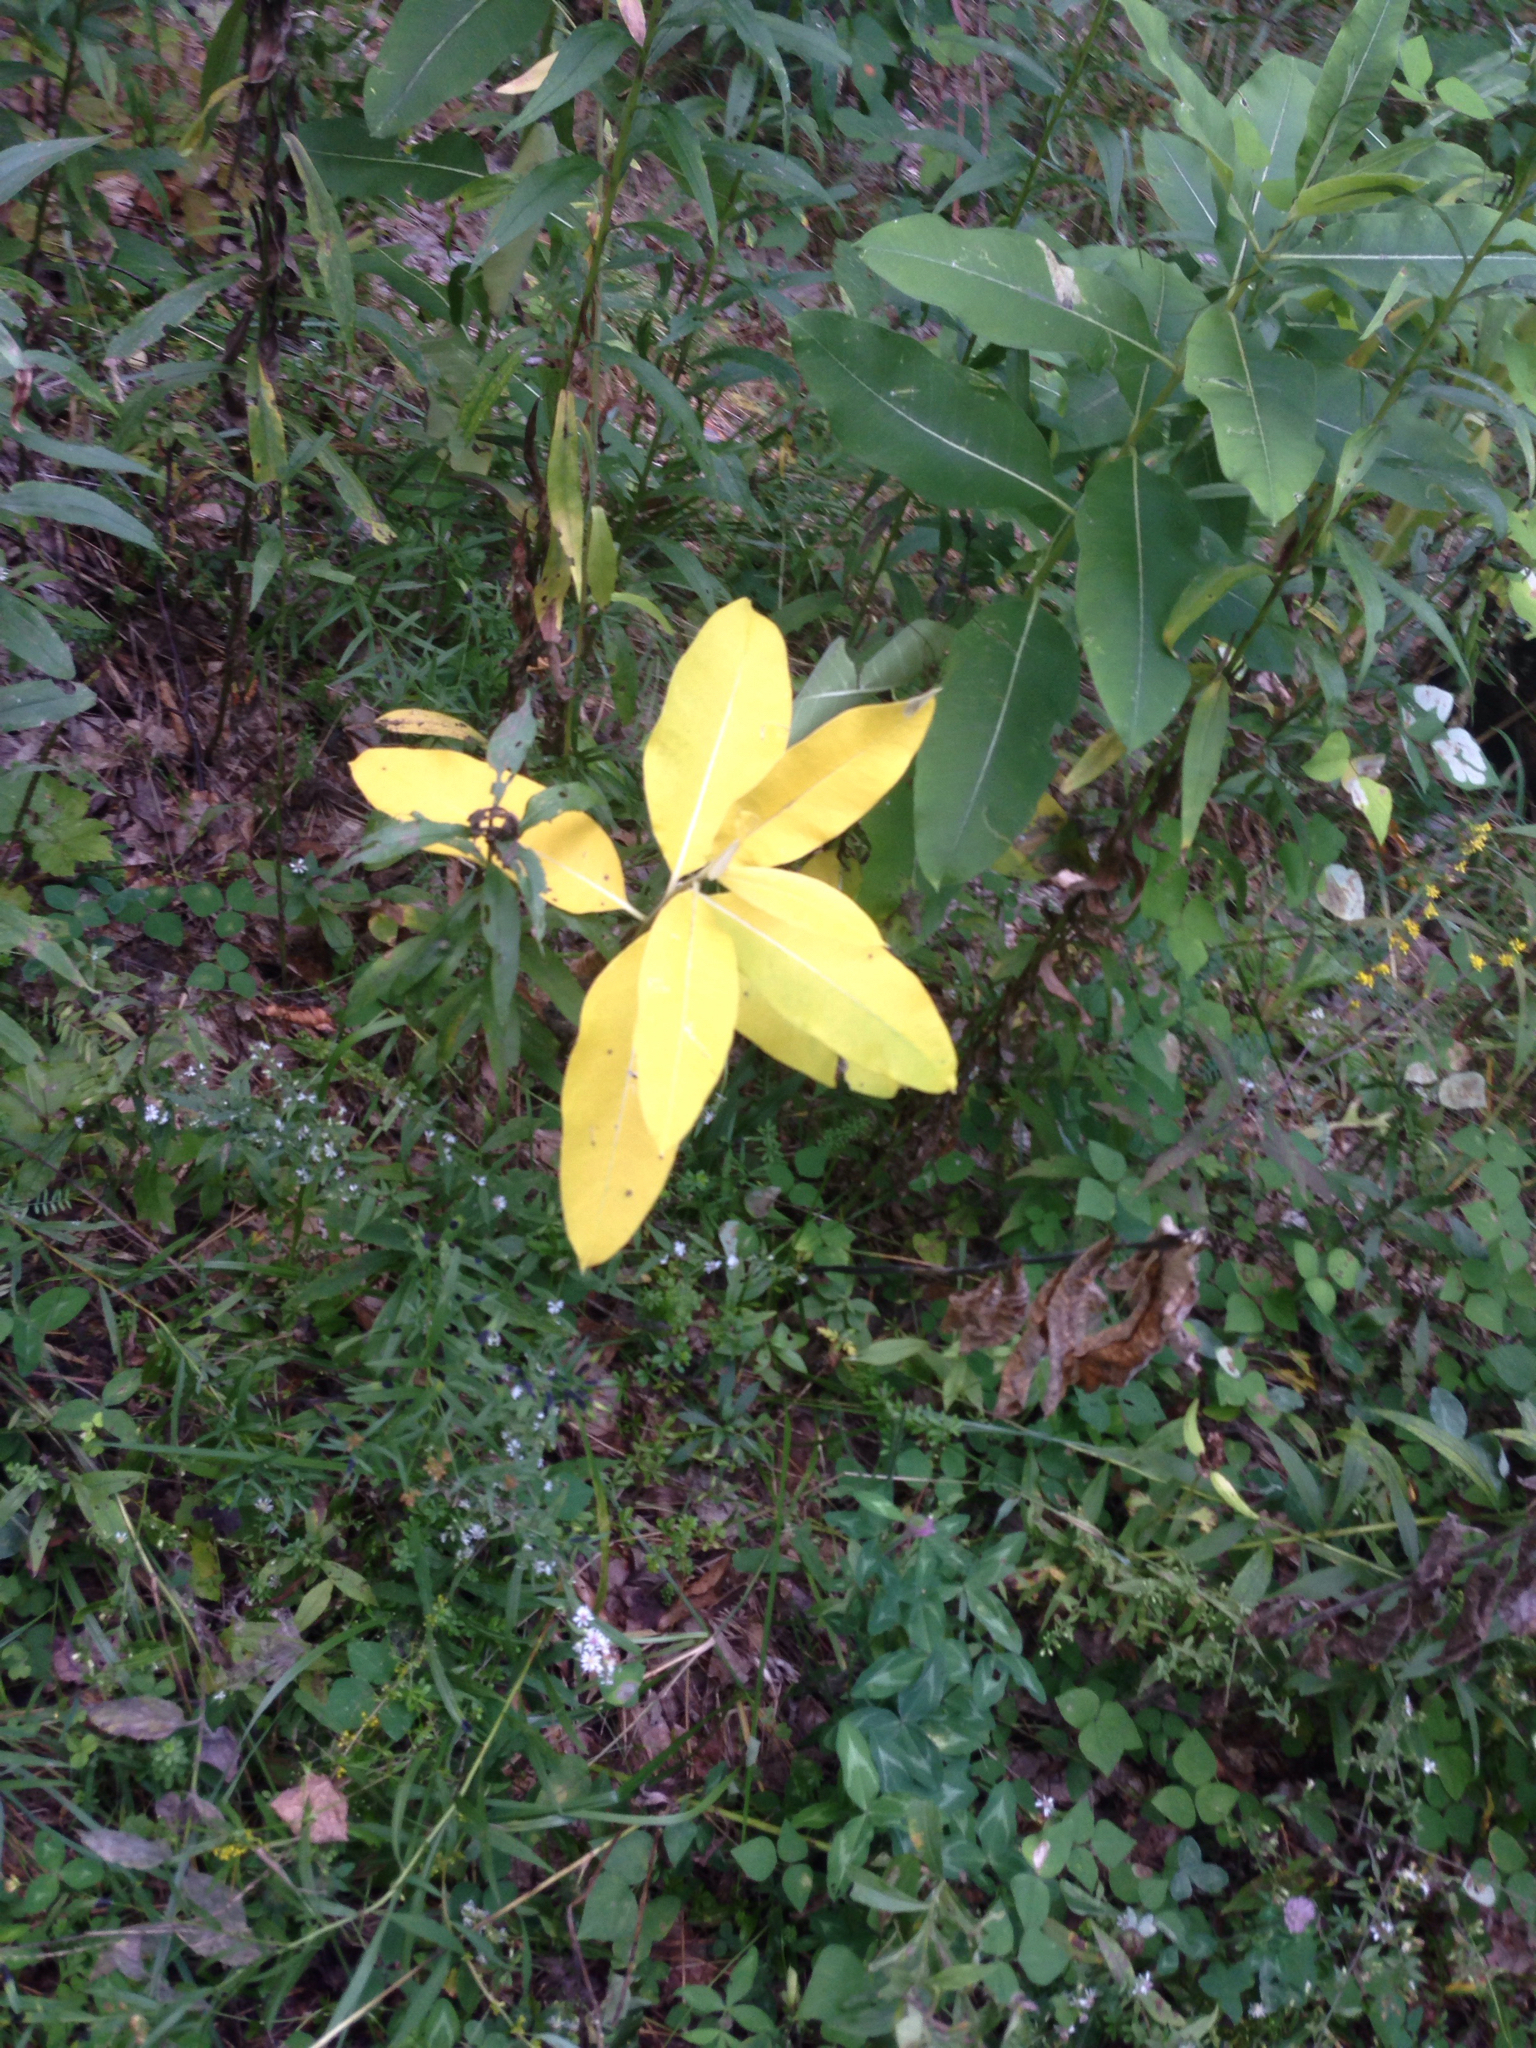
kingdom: Plantae
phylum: Tracheophyta
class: Magnoliopsida
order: Gentianales
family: Apocynaceae
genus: Asclepias
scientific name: Asclepias syriaca
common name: Common milkweed
